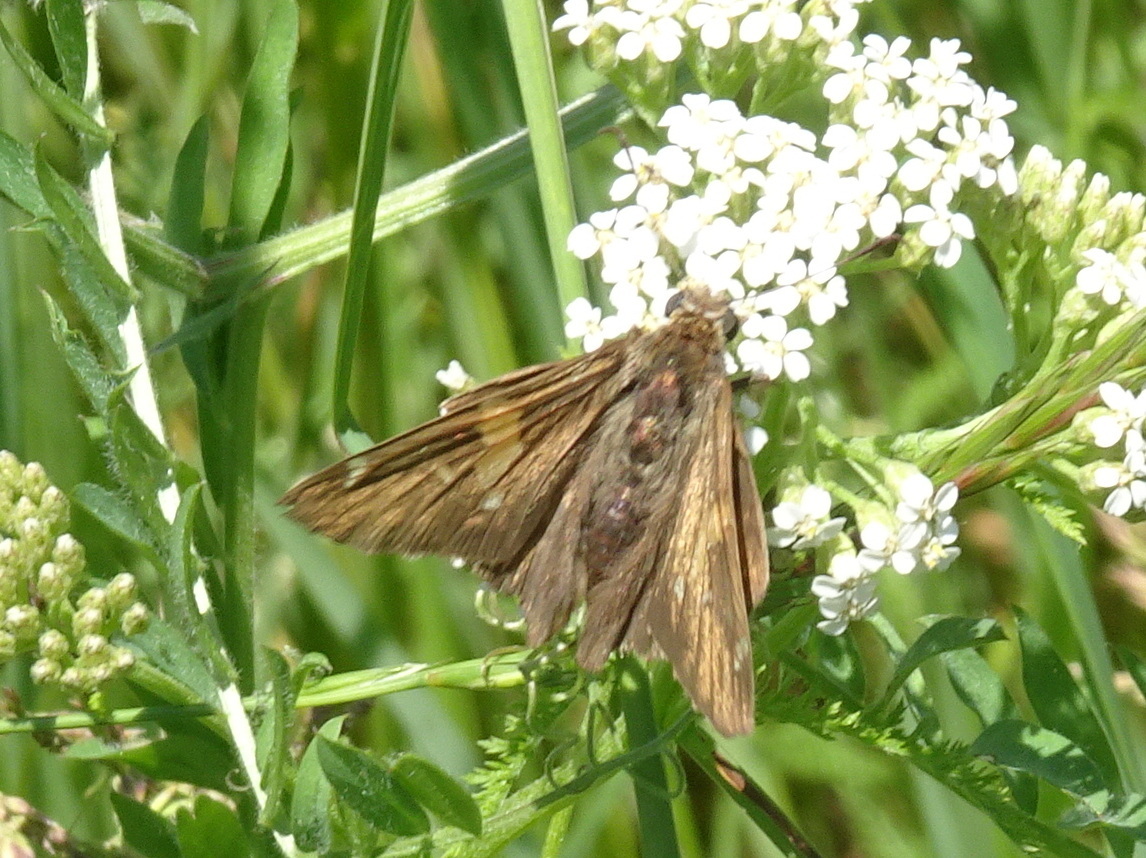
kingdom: Animalia
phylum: Arthropoda
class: Insecta
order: Lepidoptera
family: Hesperiidae
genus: Epargyreus
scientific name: Epargyreus clarus
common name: Silver-spotted skipper
